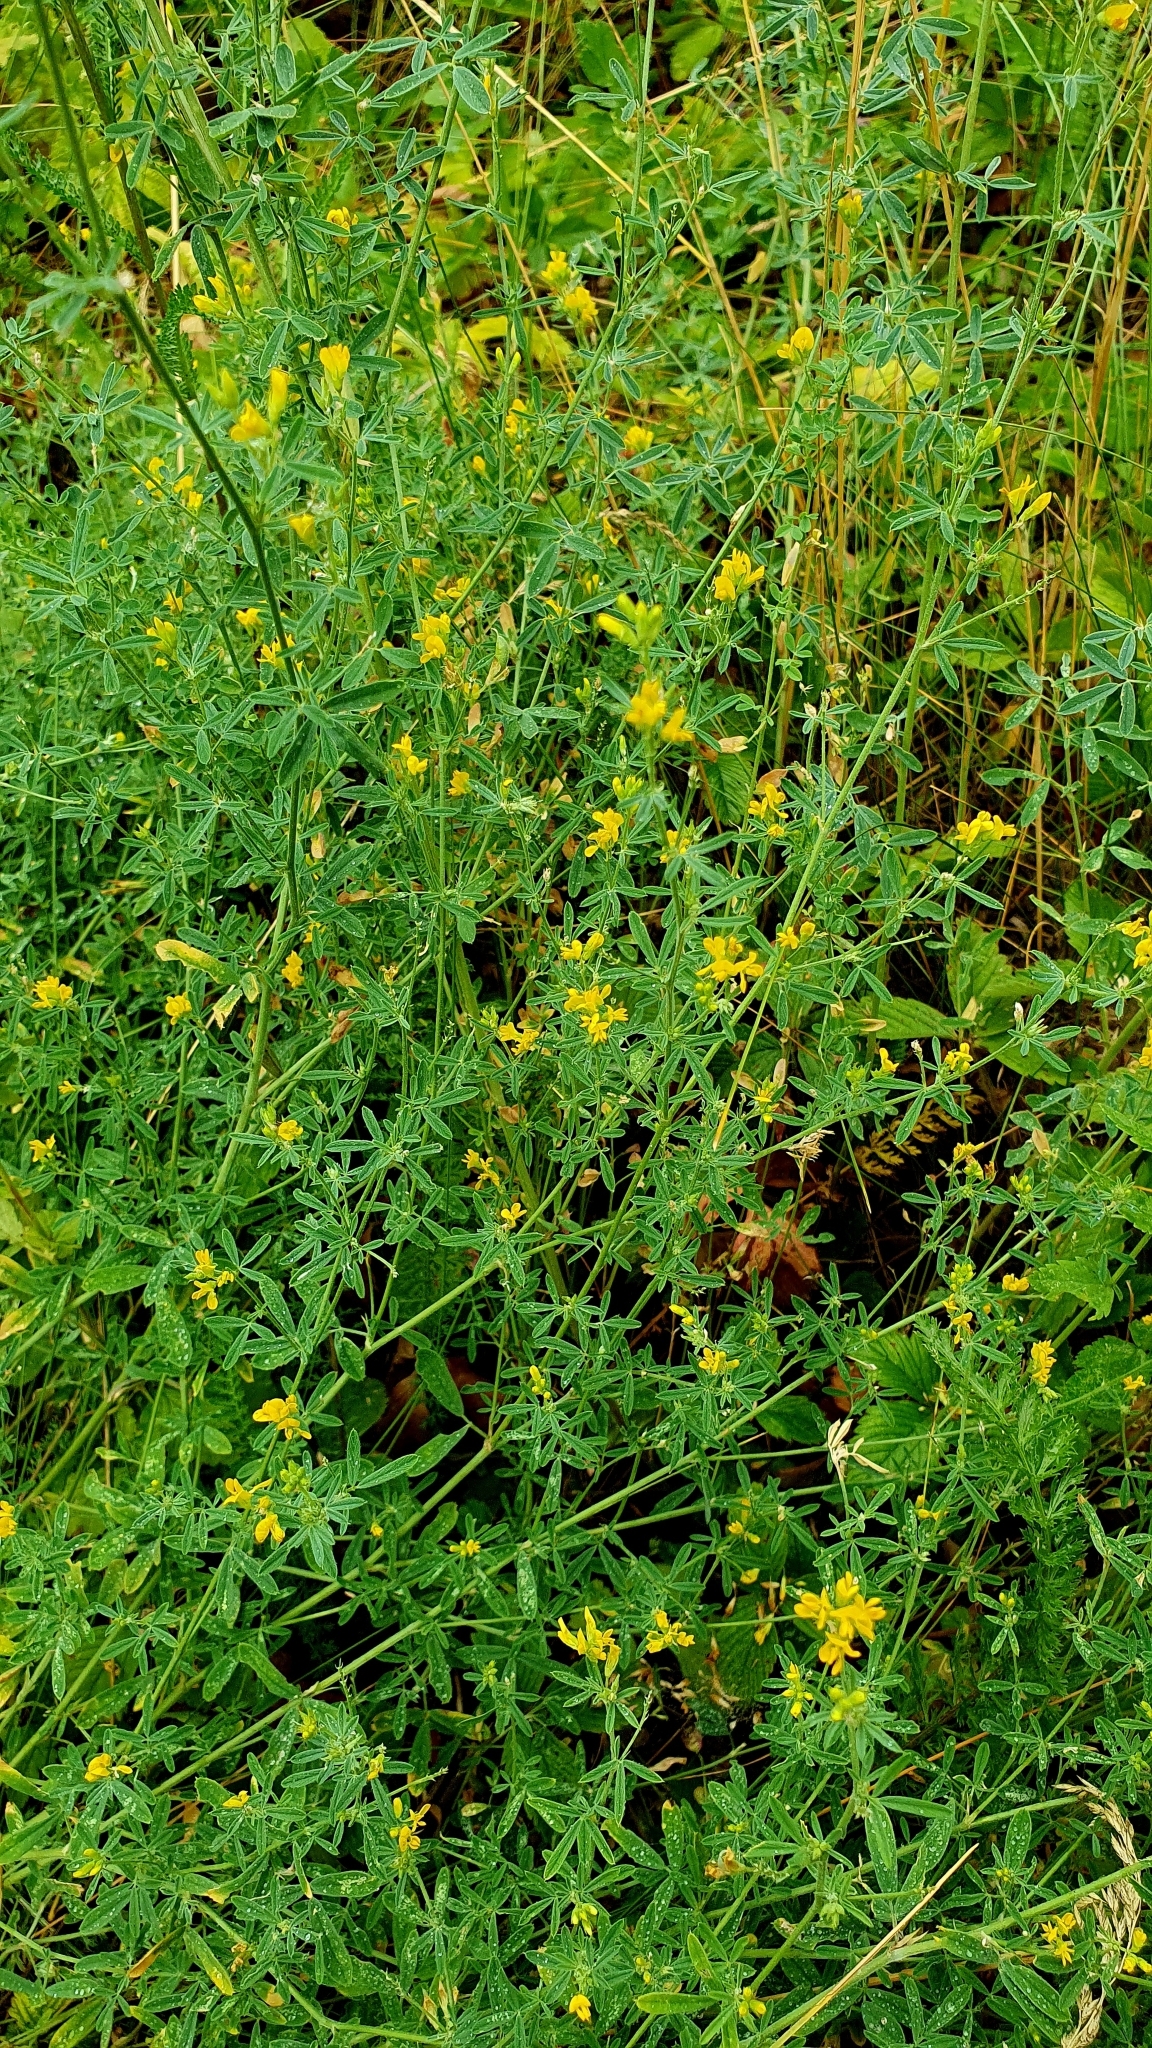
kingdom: Plantae
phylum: Tracheophyta
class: Magnoliopsida
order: Fabales
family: Fabaceae
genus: Medicago
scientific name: Medicago falcata
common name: Sickle medick
